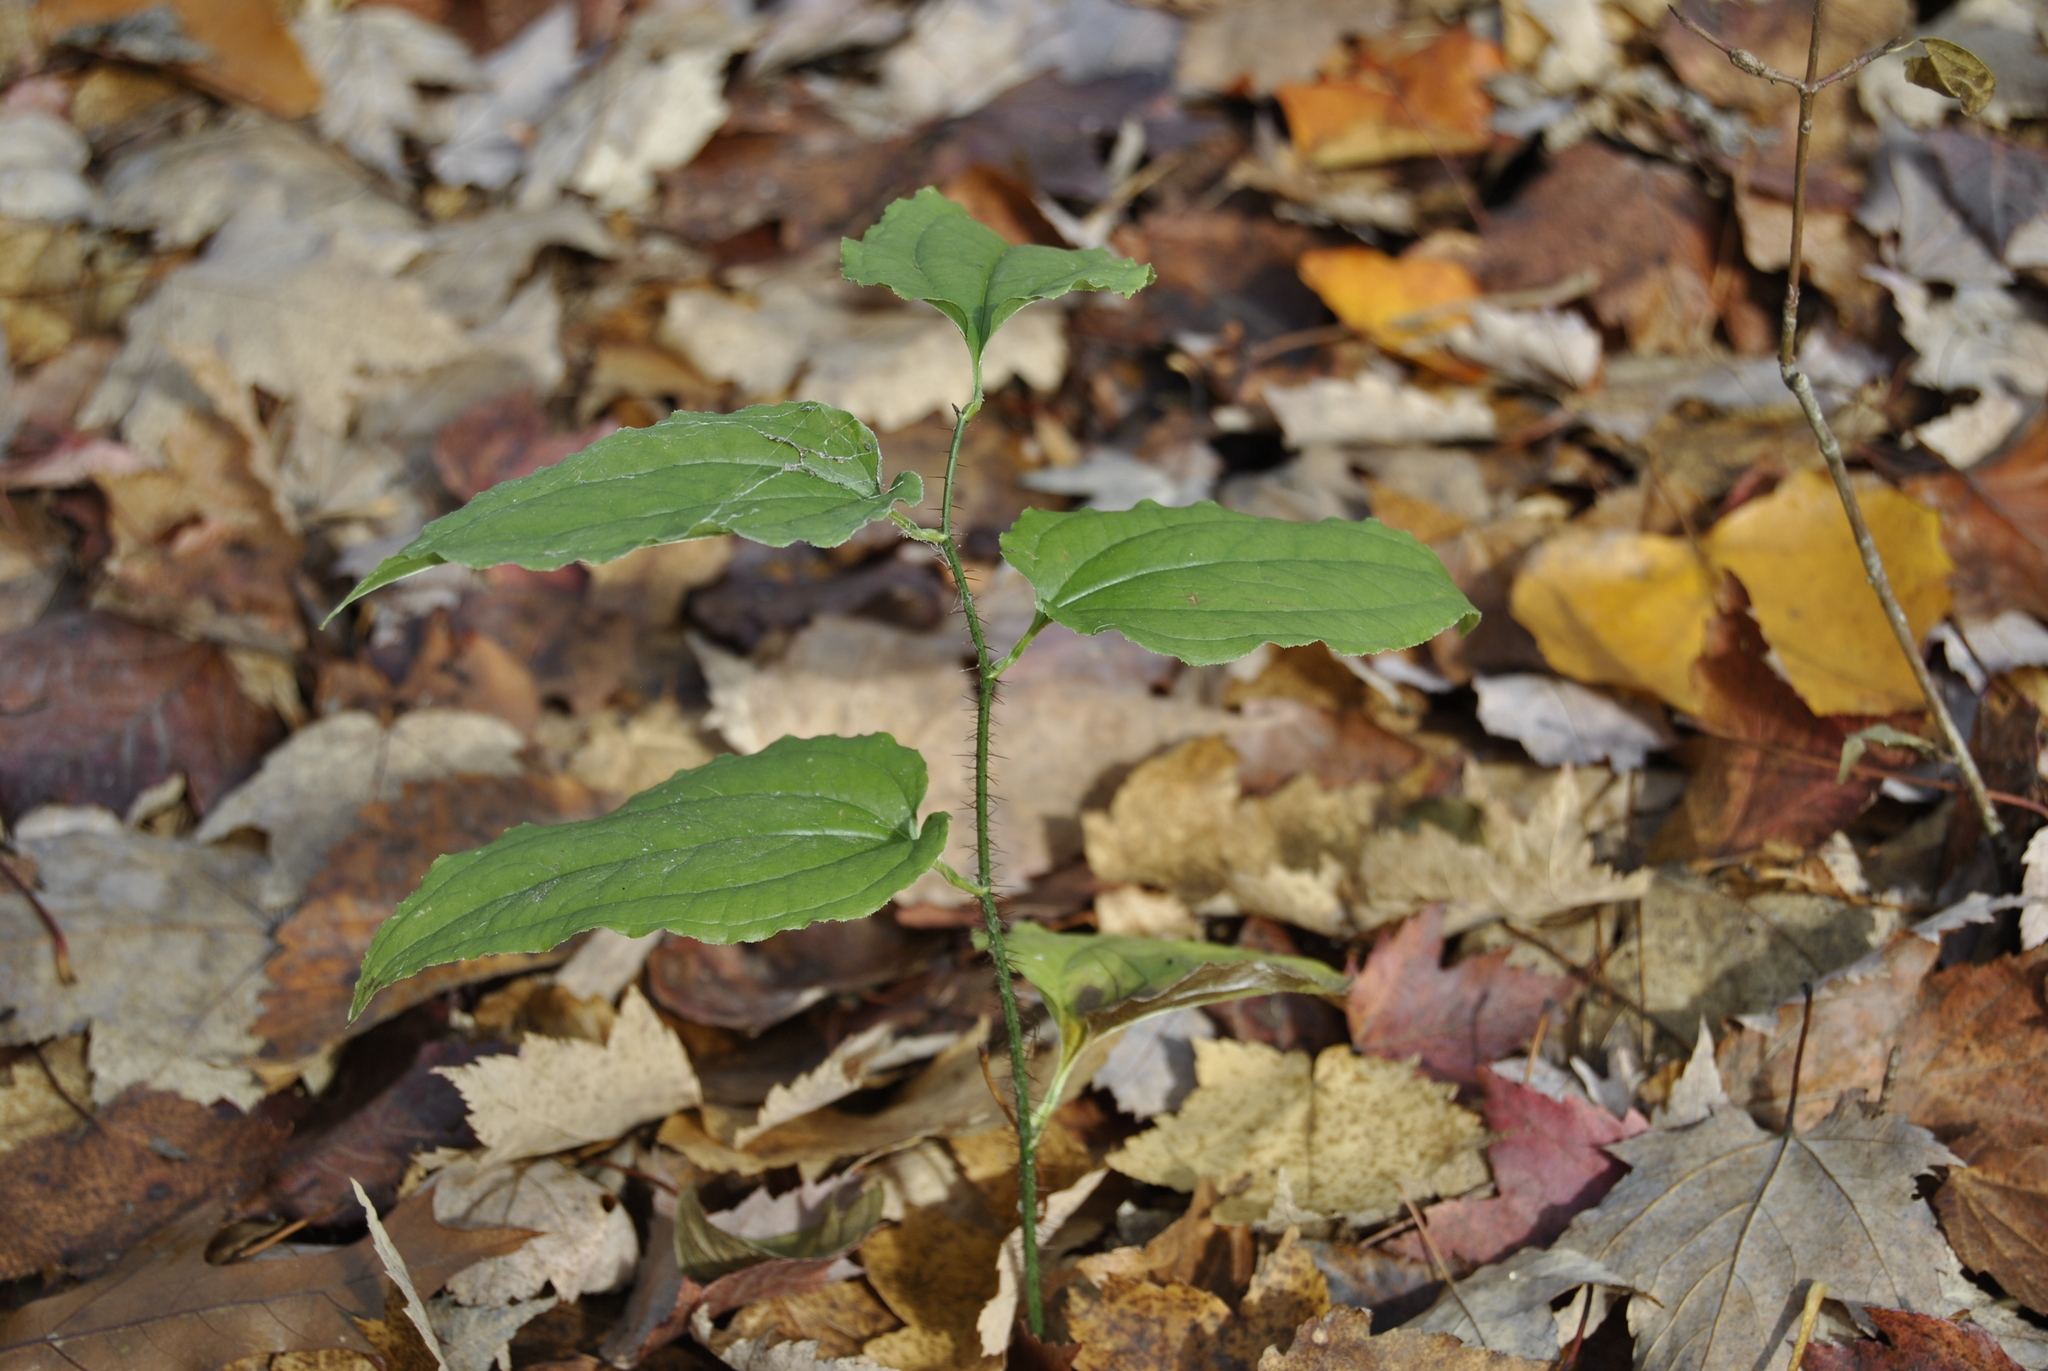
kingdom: Plantae
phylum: Tracheophyta
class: Liliopsida
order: Liliales
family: Smilacaceae
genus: Smilax
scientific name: Smilax tamnoides
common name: Hellfetter
